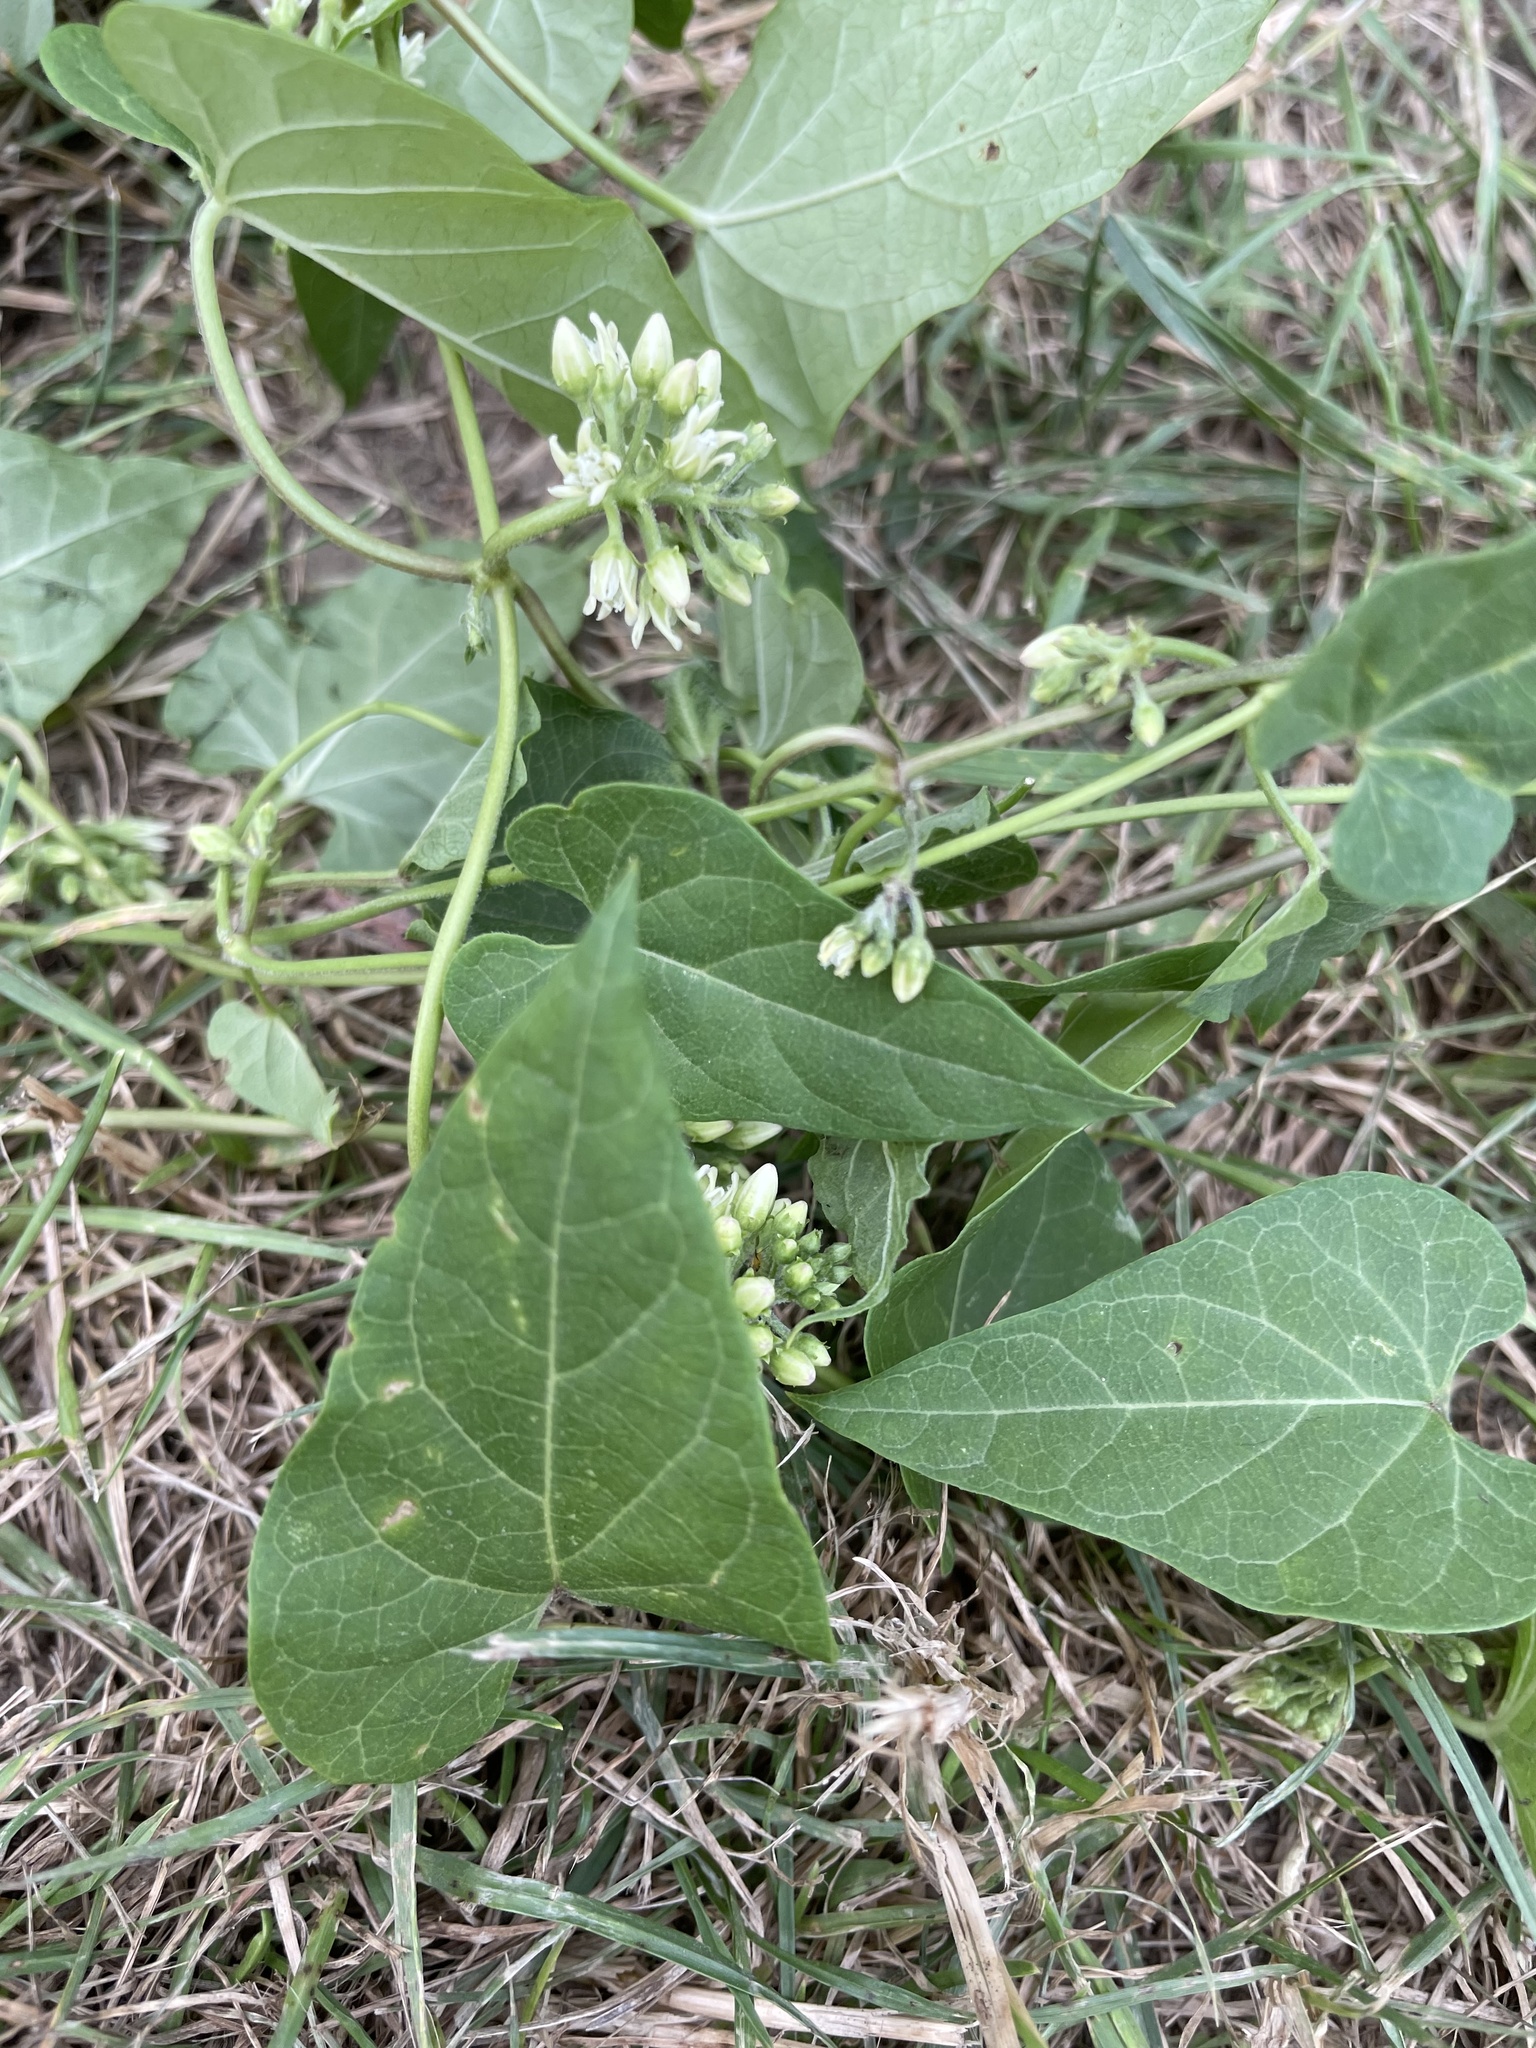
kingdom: Plantae
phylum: Tracheophyta
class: Magnoliopsida
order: Gentianales
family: Apocynaceae
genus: Cynanchum
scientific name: Cynanchum laeve
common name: Sandvine
